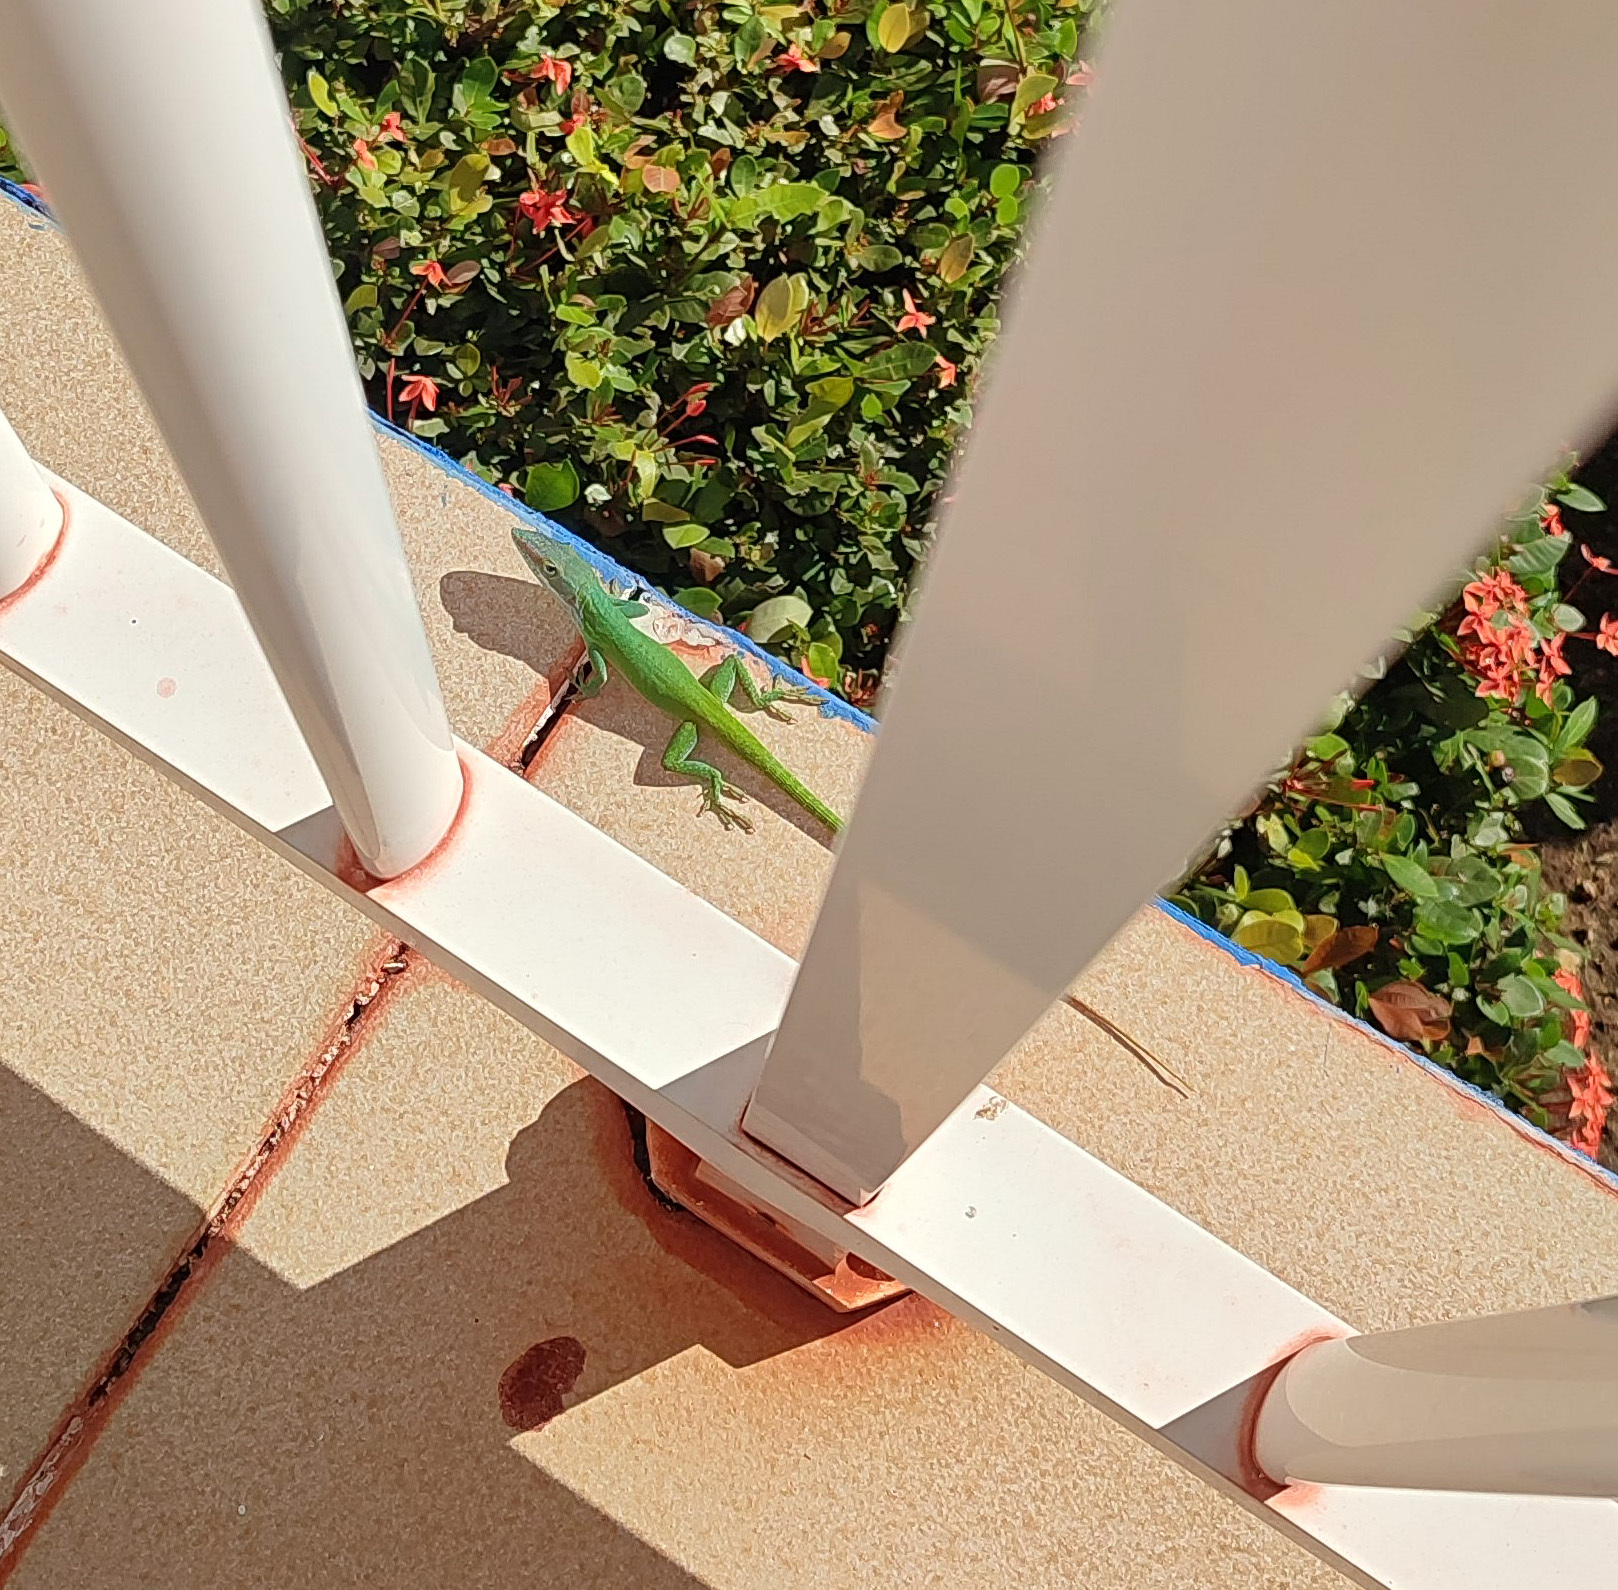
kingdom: Animalia
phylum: Chordata
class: Squamata
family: Dactyloidae
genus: Anolis
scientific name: Anolis allisoni
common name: Allison's anole
